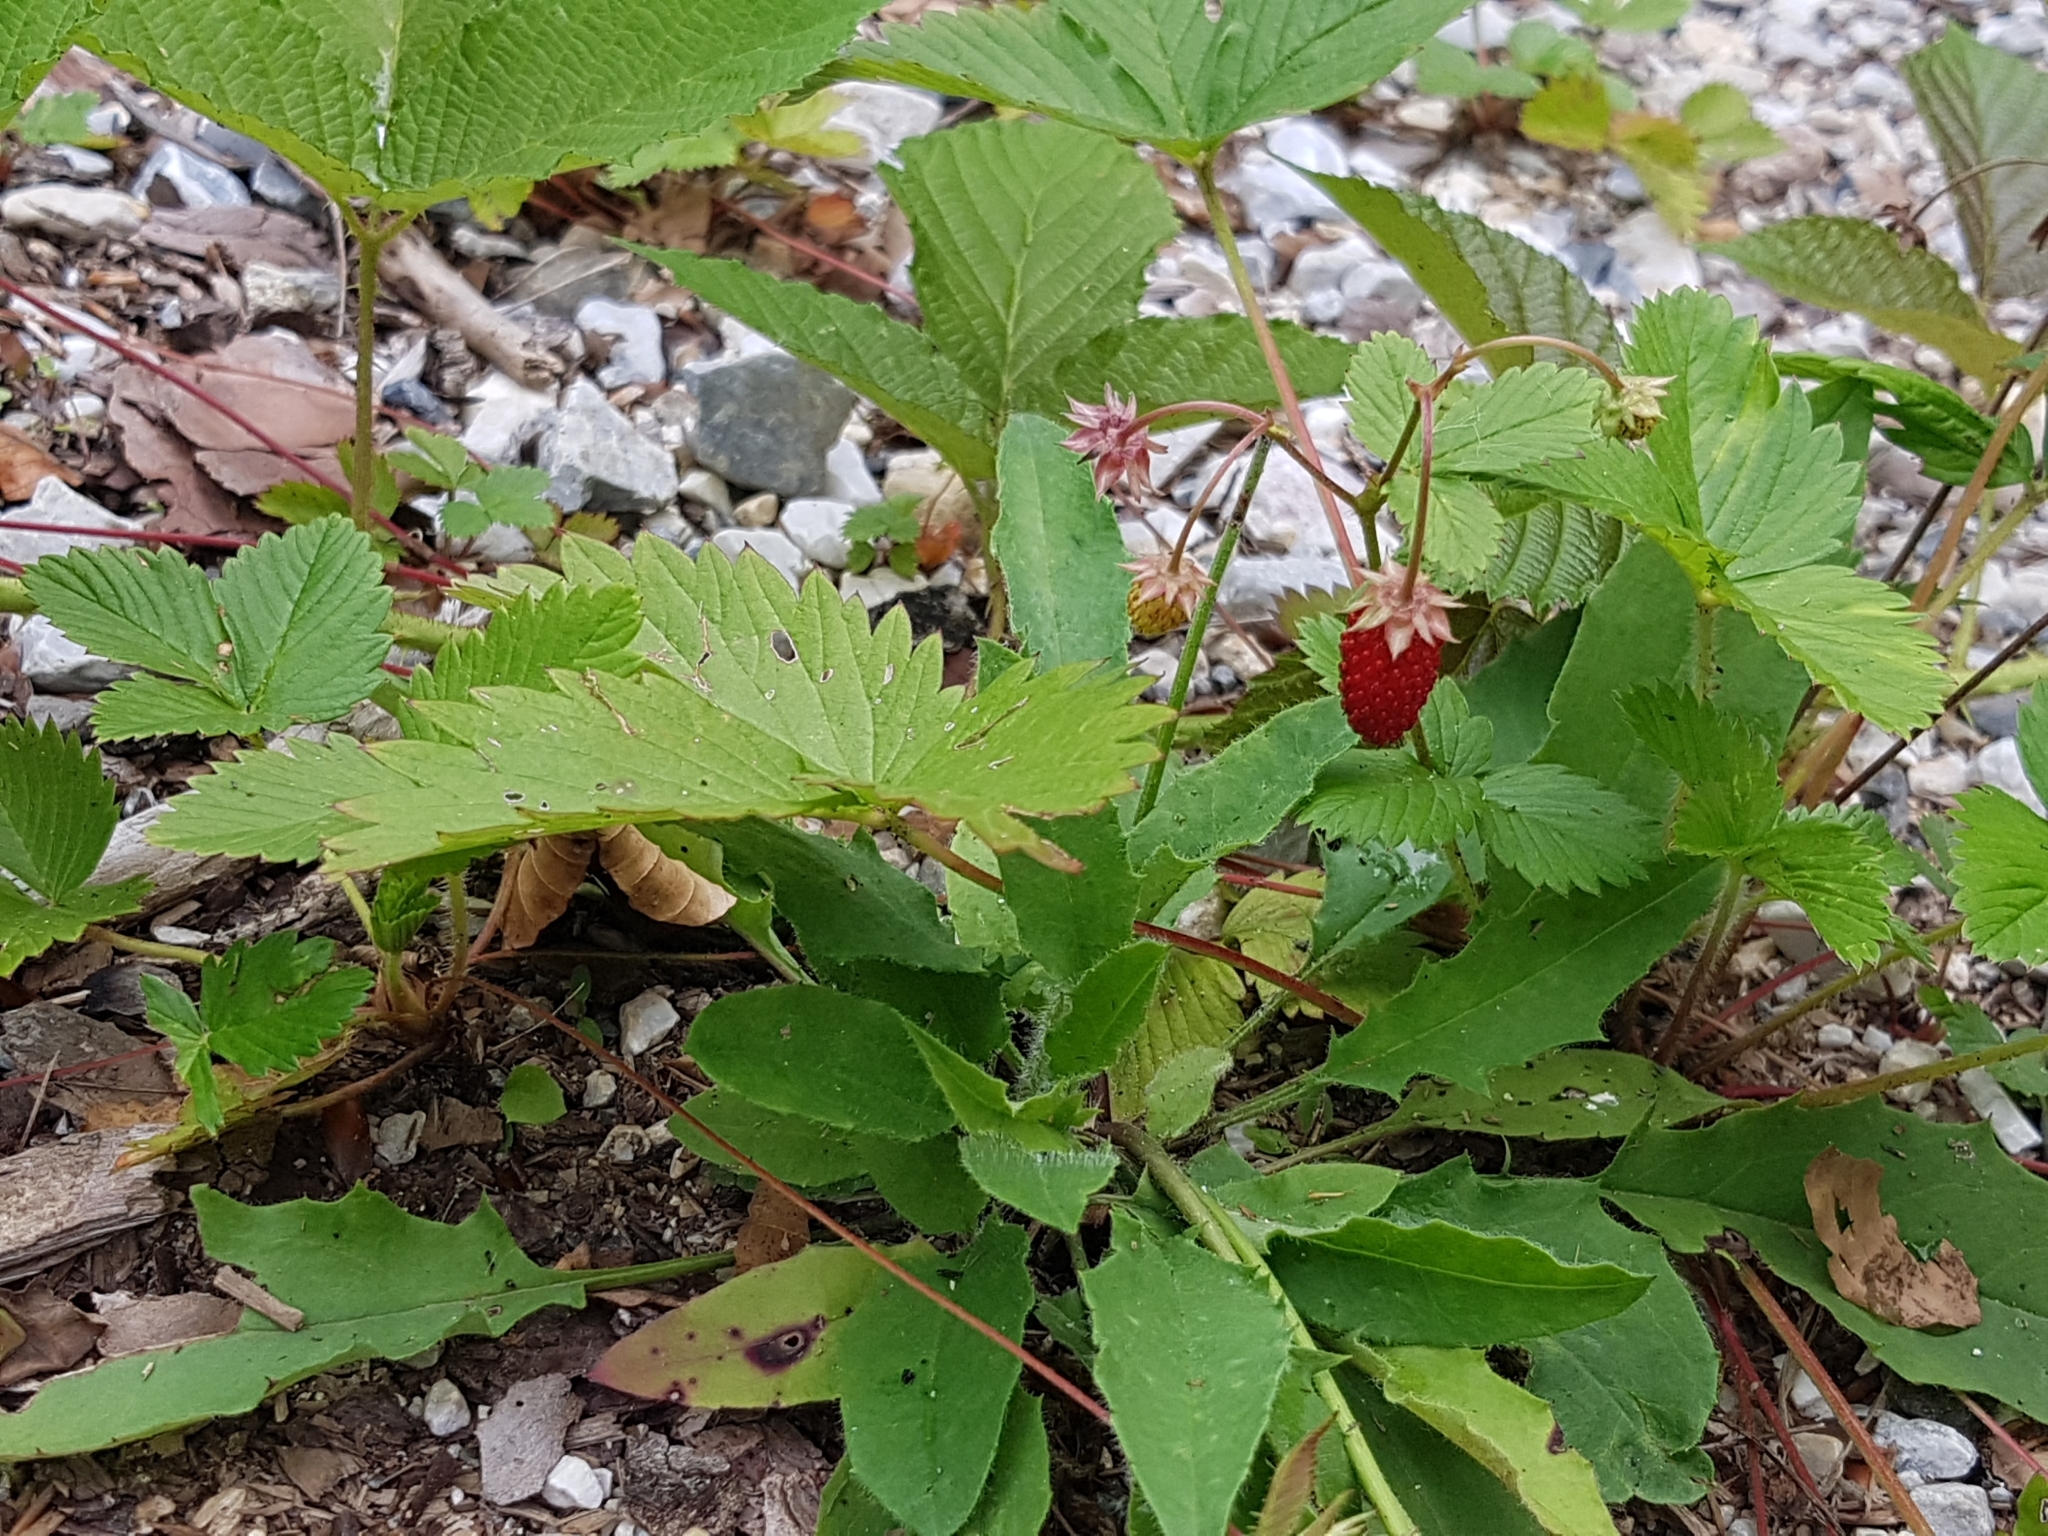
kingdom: Plantae
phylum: Tracheophyta
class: Magnoliopsida
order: Rosales
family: Rosaceae
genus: Fragaria
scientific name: Fragaria vesca
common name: Wild strawberry
